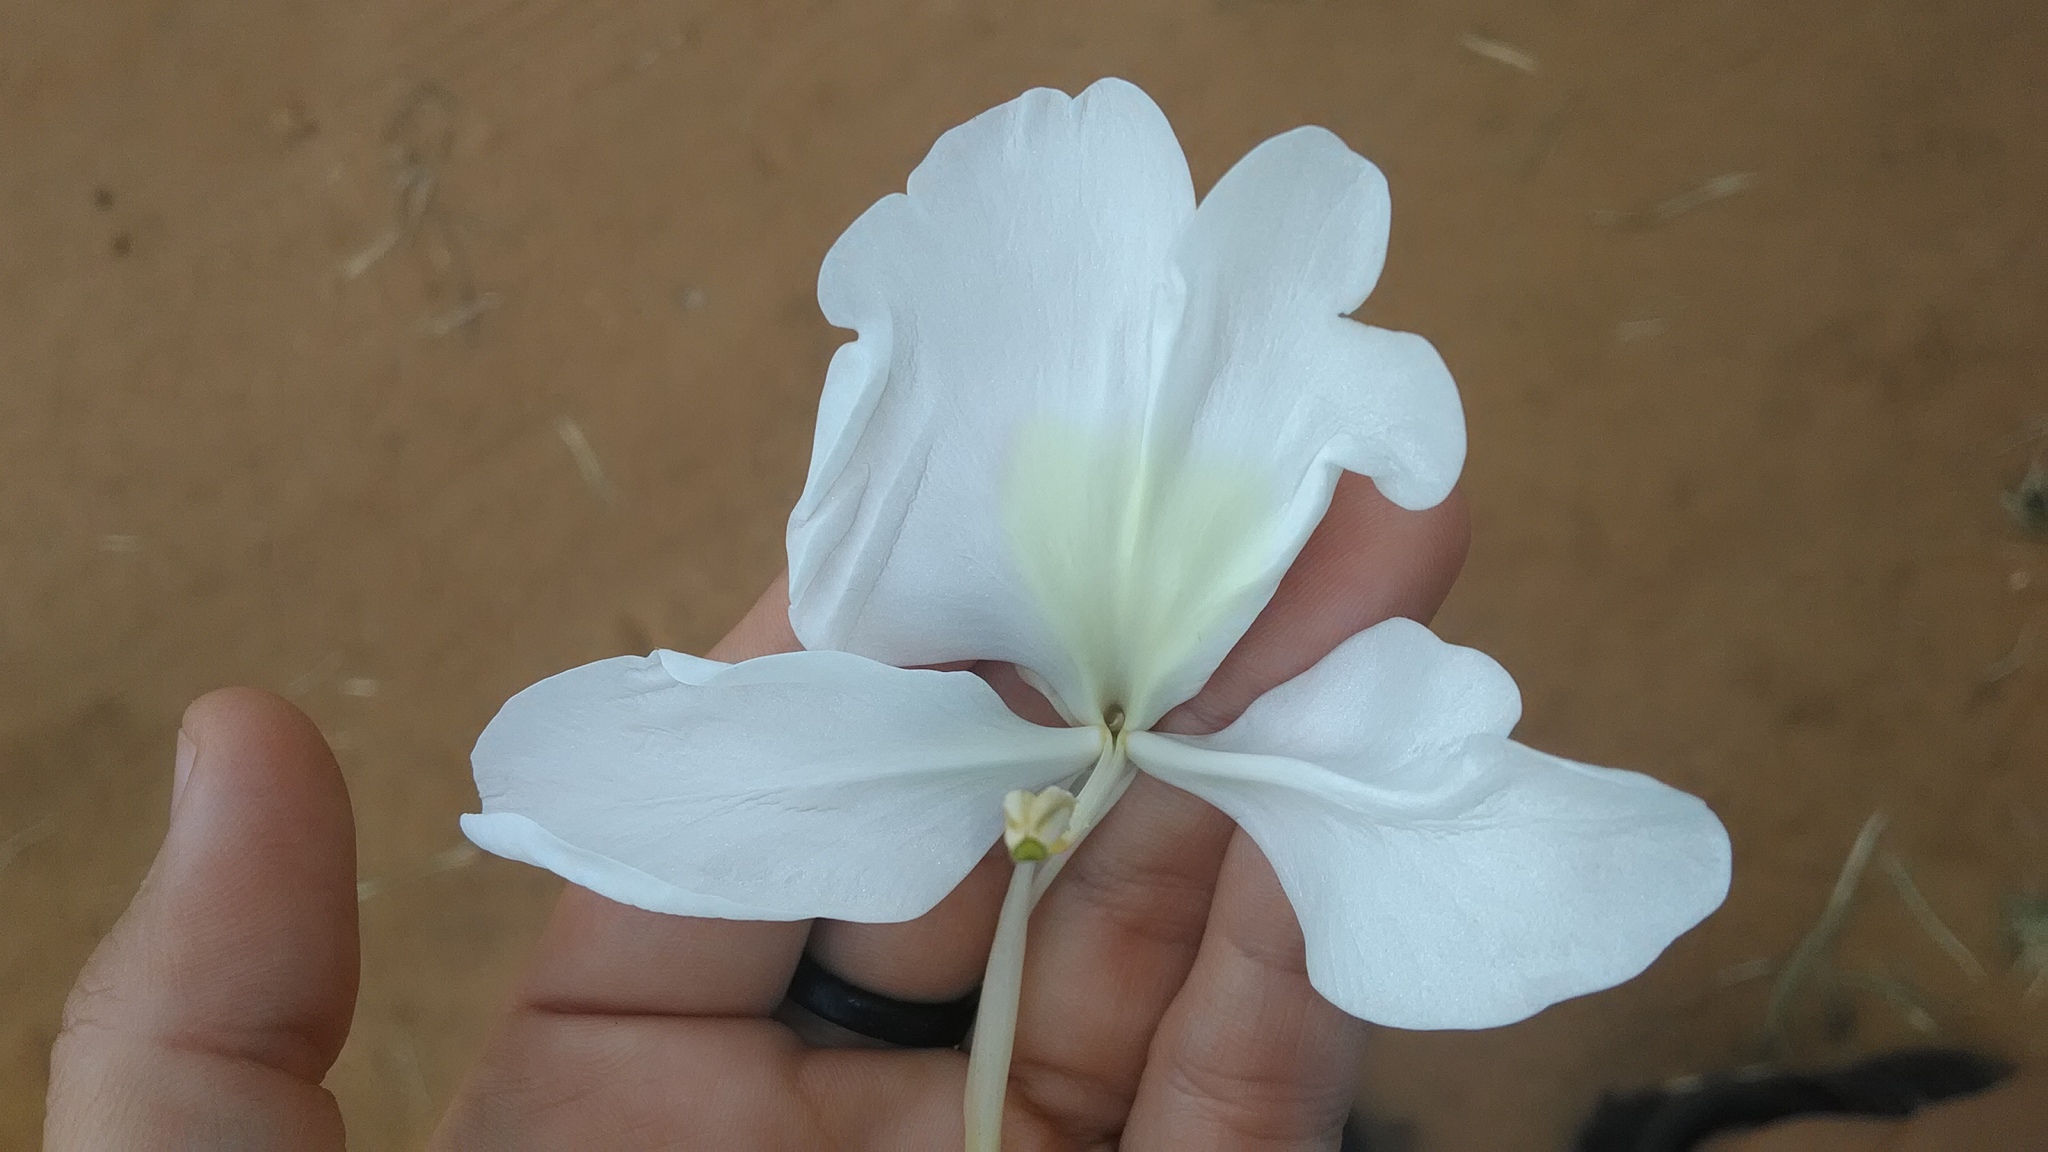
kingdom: Plantae
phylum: Tracheophyta
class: Liliopsida
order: Zingiberales
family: Zingiberaceae
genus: Hedychium
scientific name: Hedychium coronarium
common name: White garland-lily
